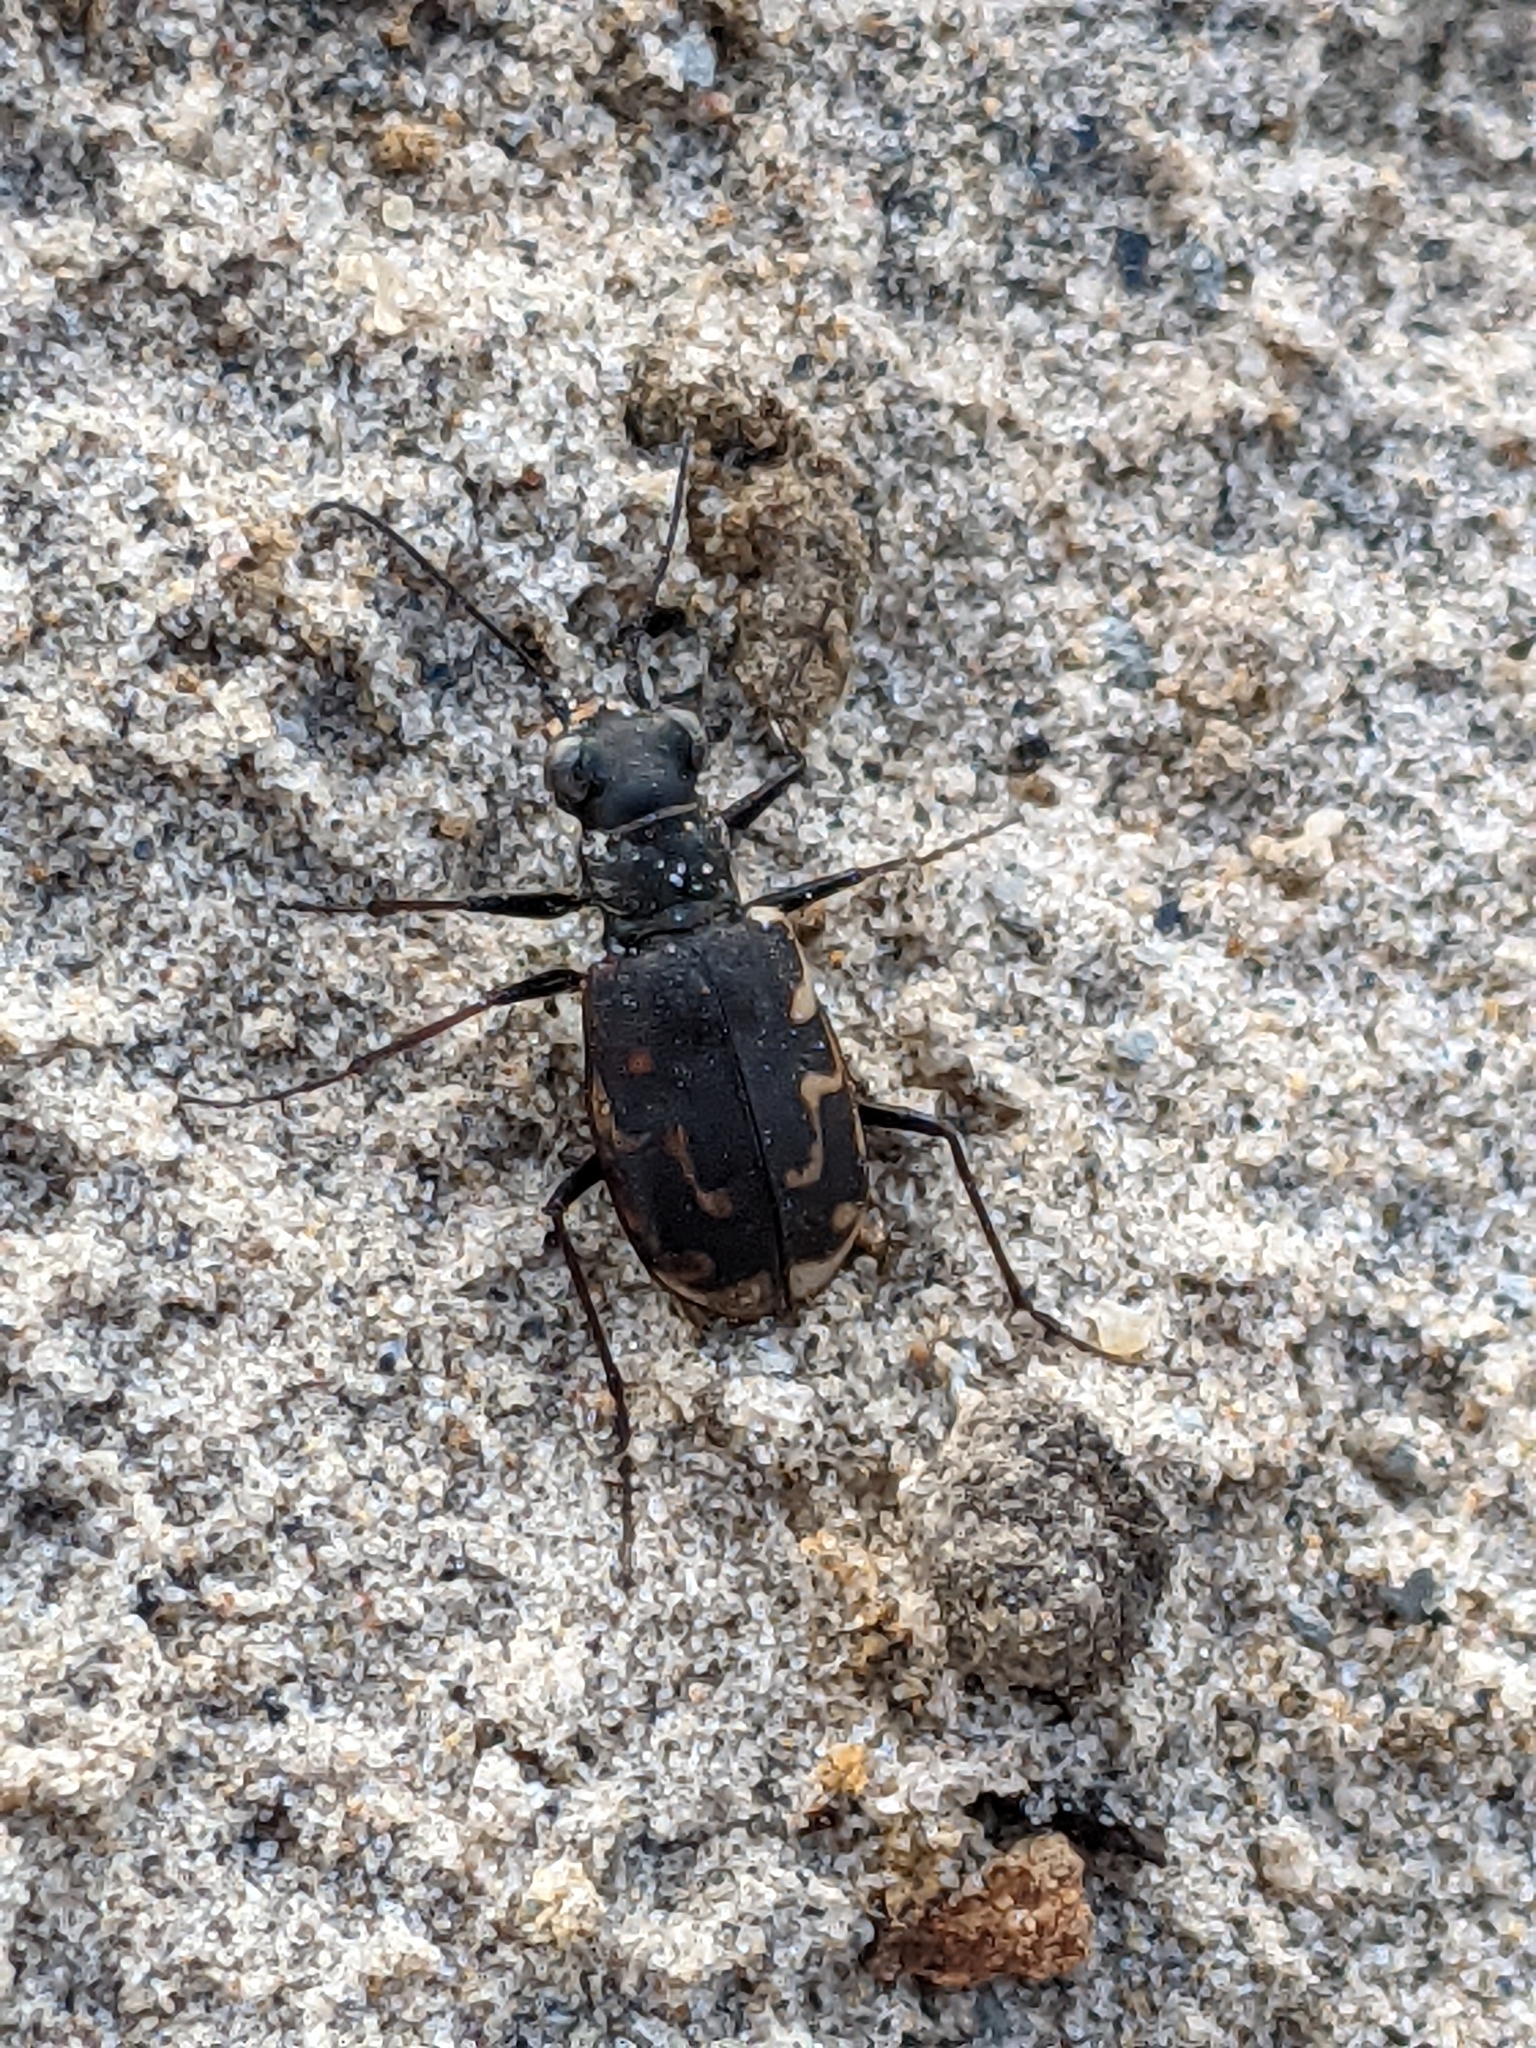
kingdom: Animalia
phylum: Arthropoda
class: Insecta
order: Coleoptera
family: Carabidae
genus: Cicindela
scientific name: Cicindela repanda
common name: Bronzed tiger beetle
